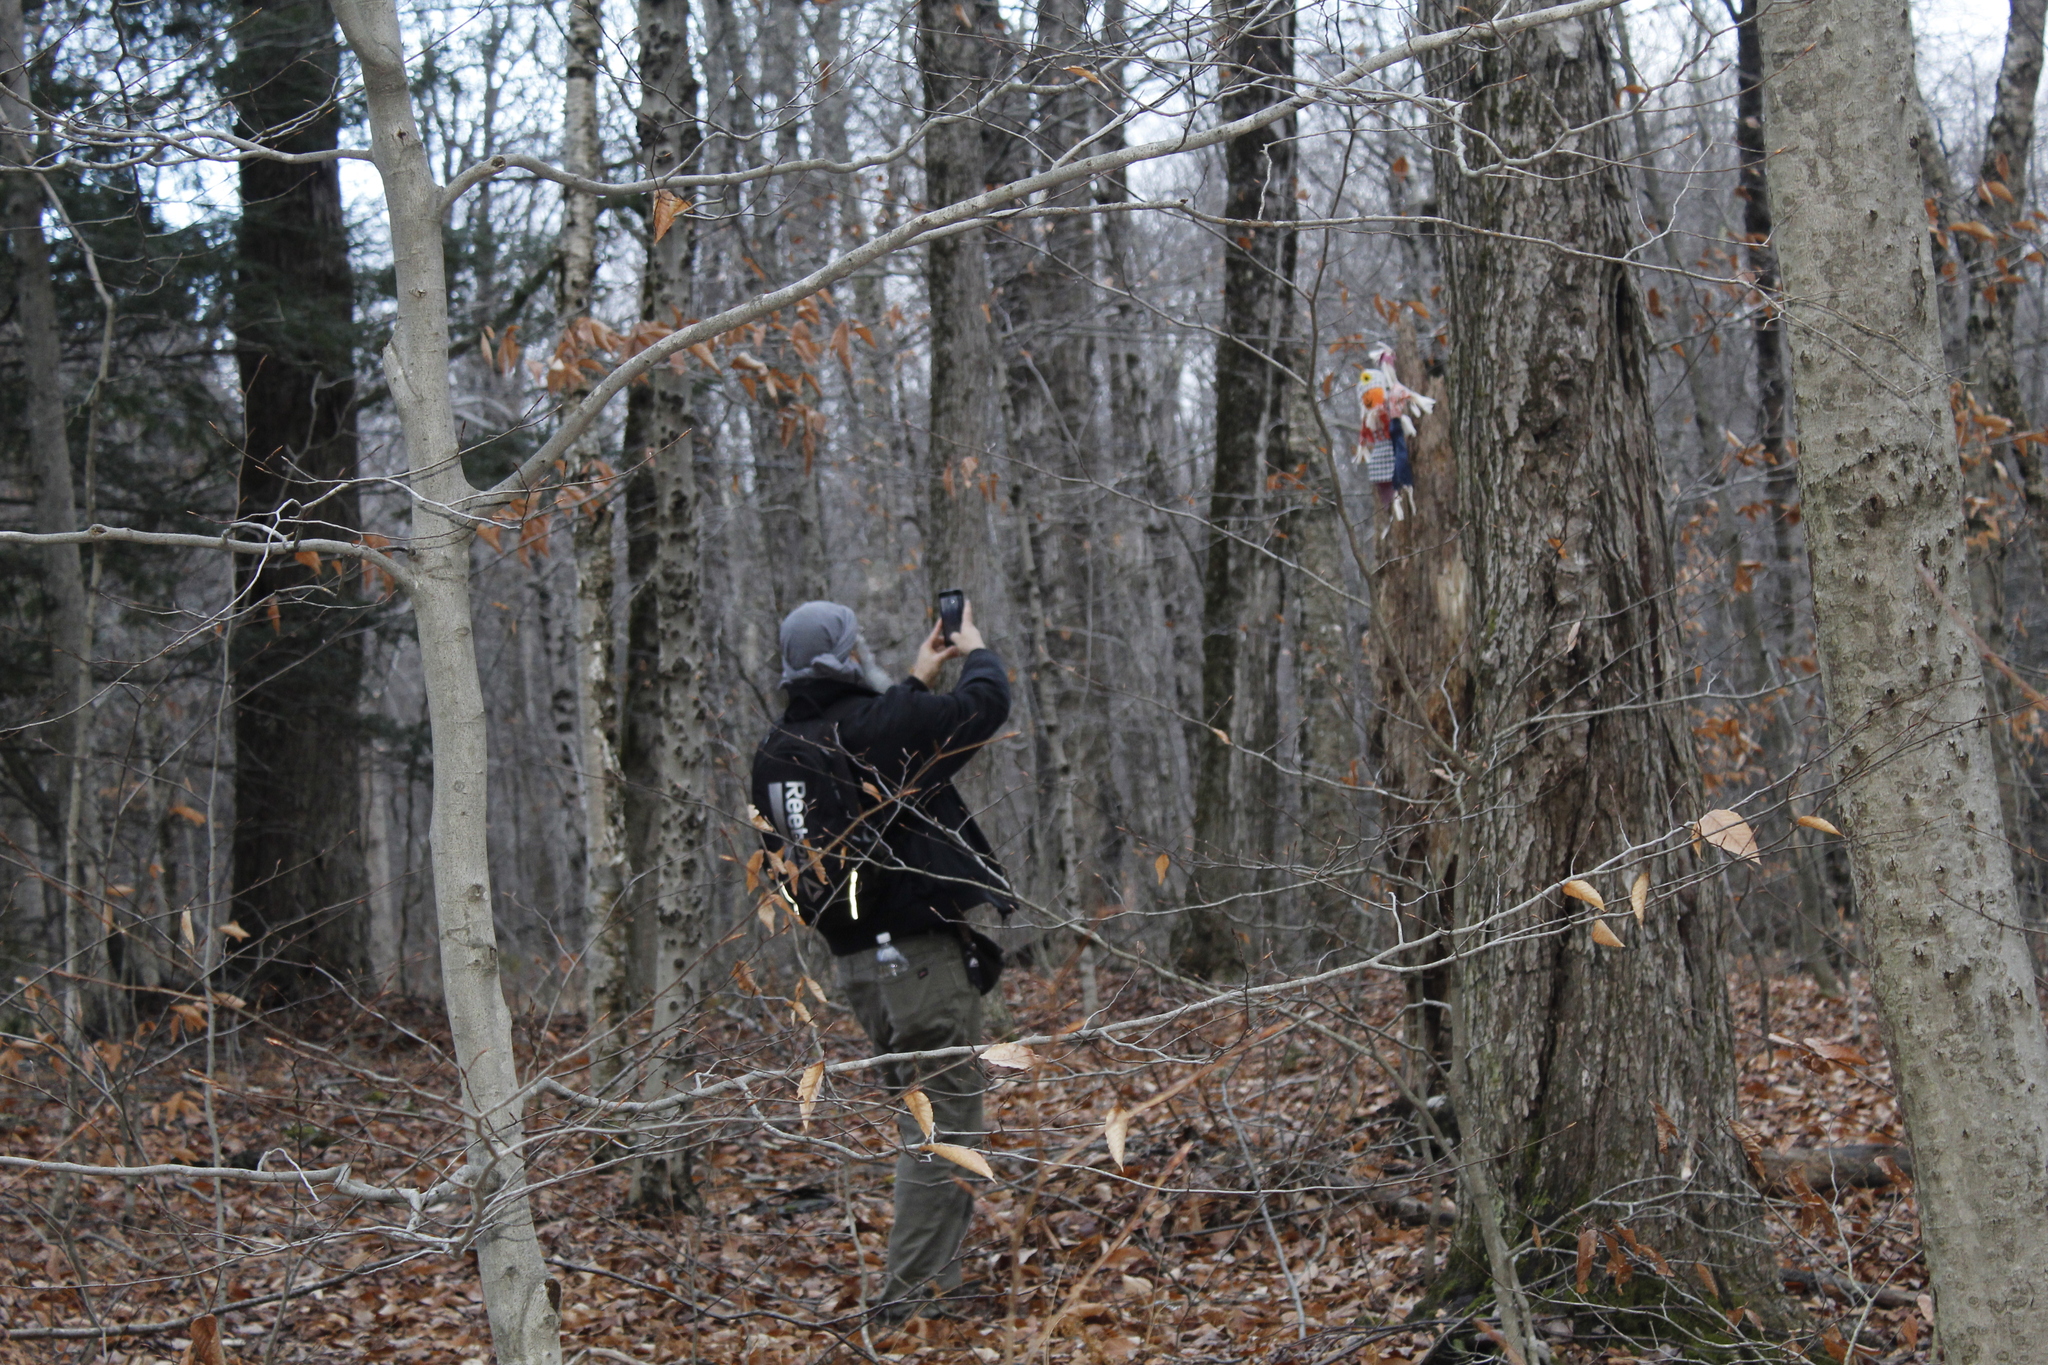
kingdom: Plantae
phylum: Tracheophyta
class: Magnoliopsida
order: Fagales
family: Fagaceae
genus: Fagus
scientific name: Fagus grandifolia
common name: American beech
